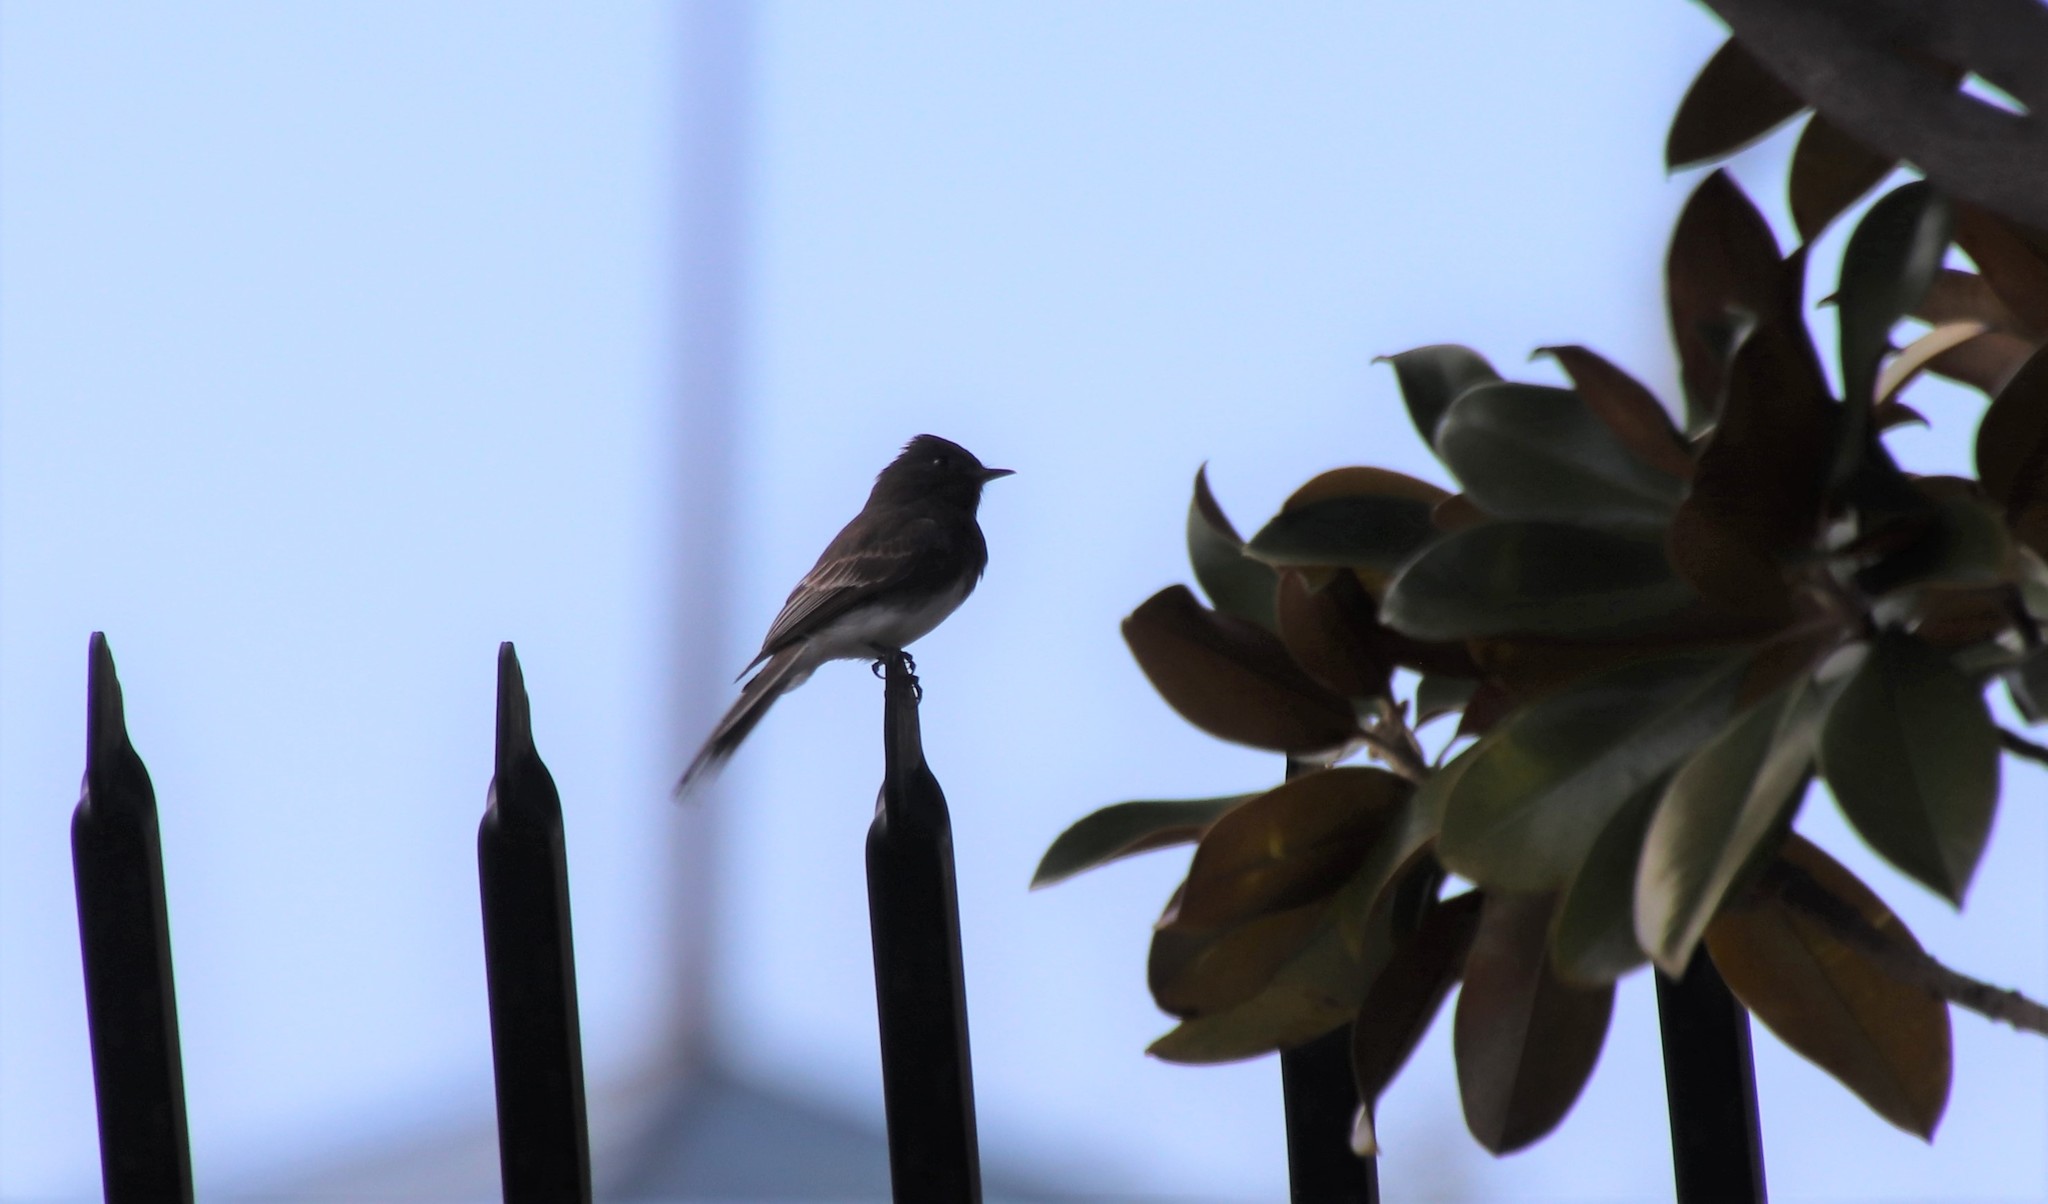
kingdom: Animalia
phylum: Chordata
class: Aves
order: Passeriformes
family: Tyrannidae
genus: Sayornis
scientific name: Sayornis nigricans
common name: Black phoebe
